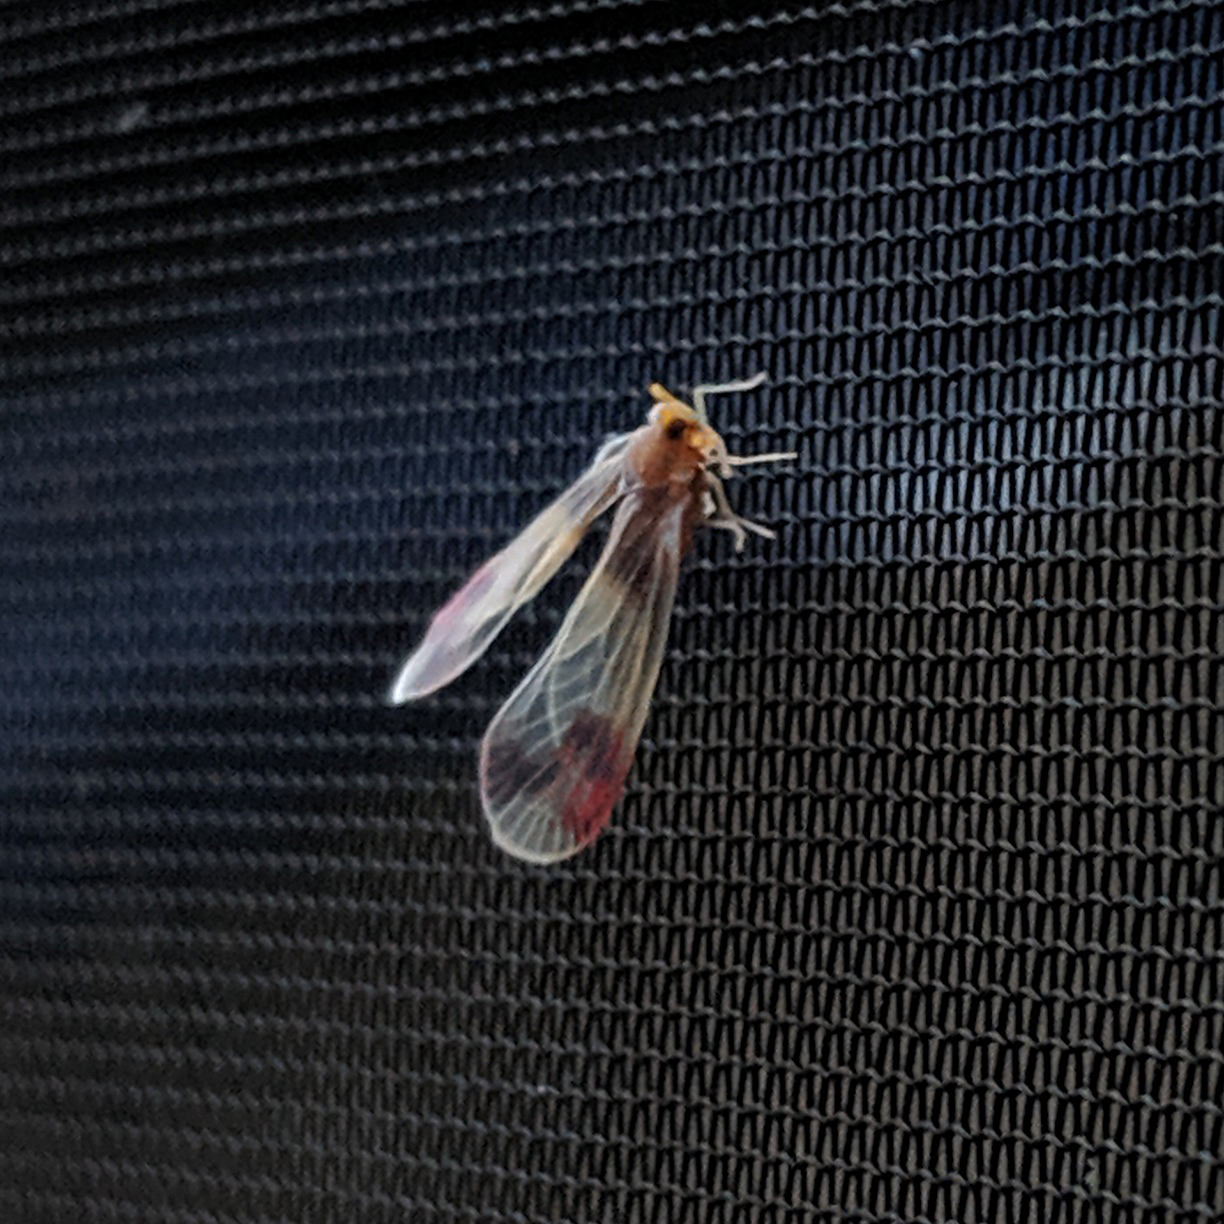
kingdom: Animalia
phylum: Arthropoda
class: Insecta
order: Hemiptera
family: Derbidae
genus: Anotia
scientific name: Anotia uhleri
